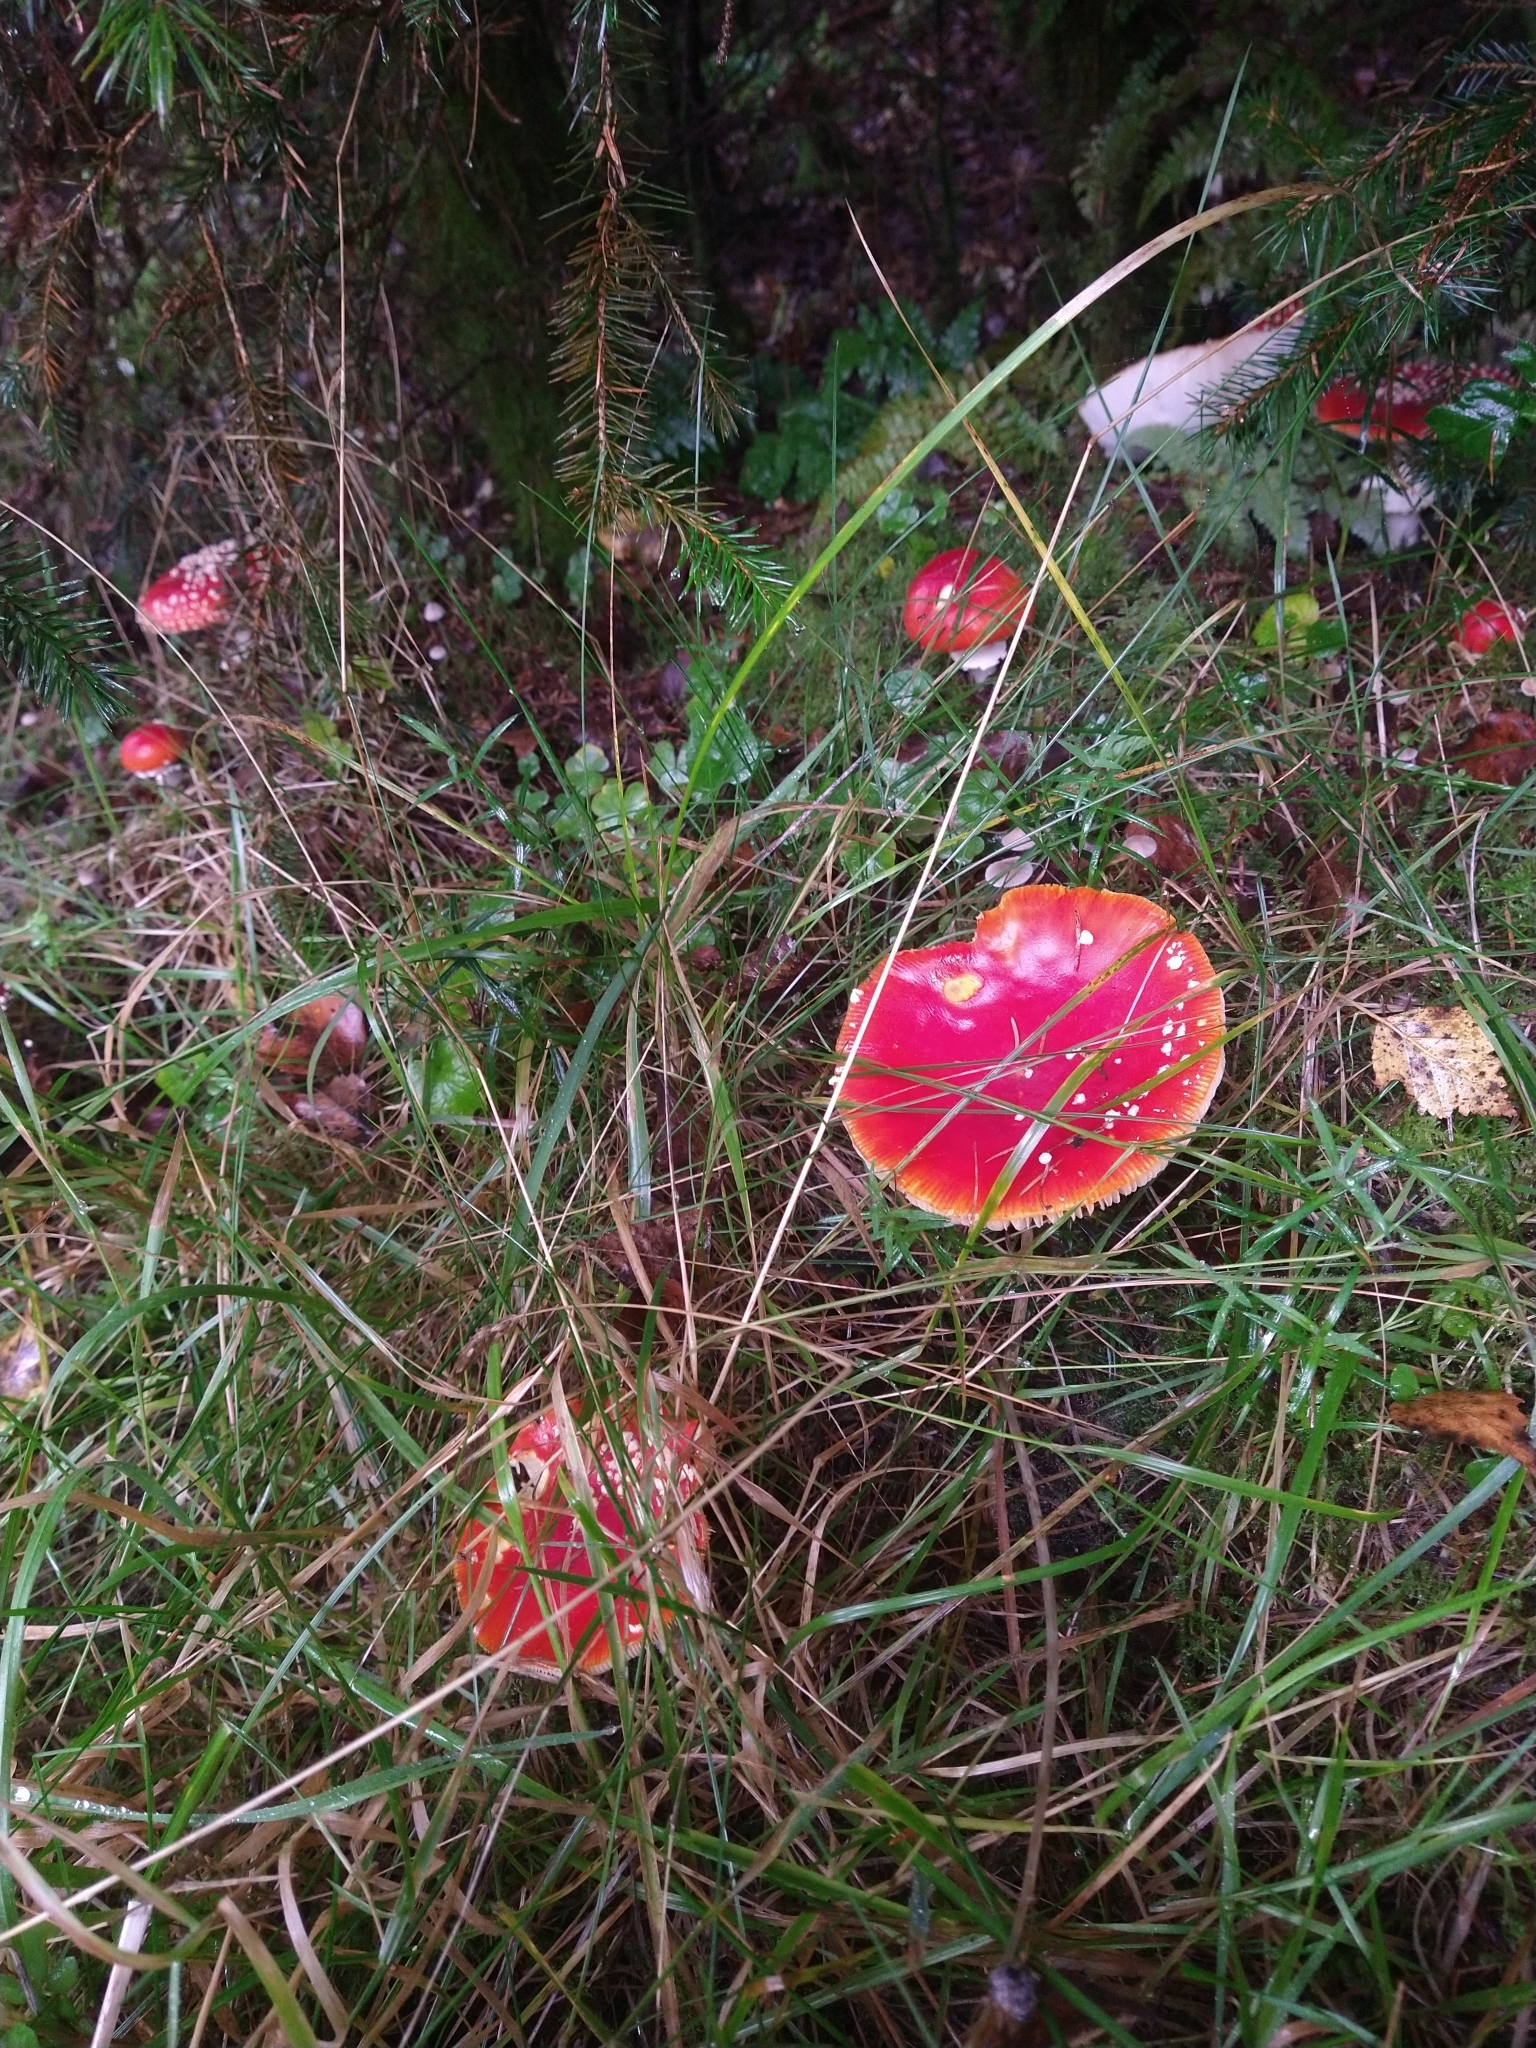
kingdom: Fungi
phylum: Basidiomycota
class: Agaricomycetes
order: Agaricales
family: Amanitaceae
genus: Amanita
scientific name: Amanita muscaria
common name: Fly agaric
